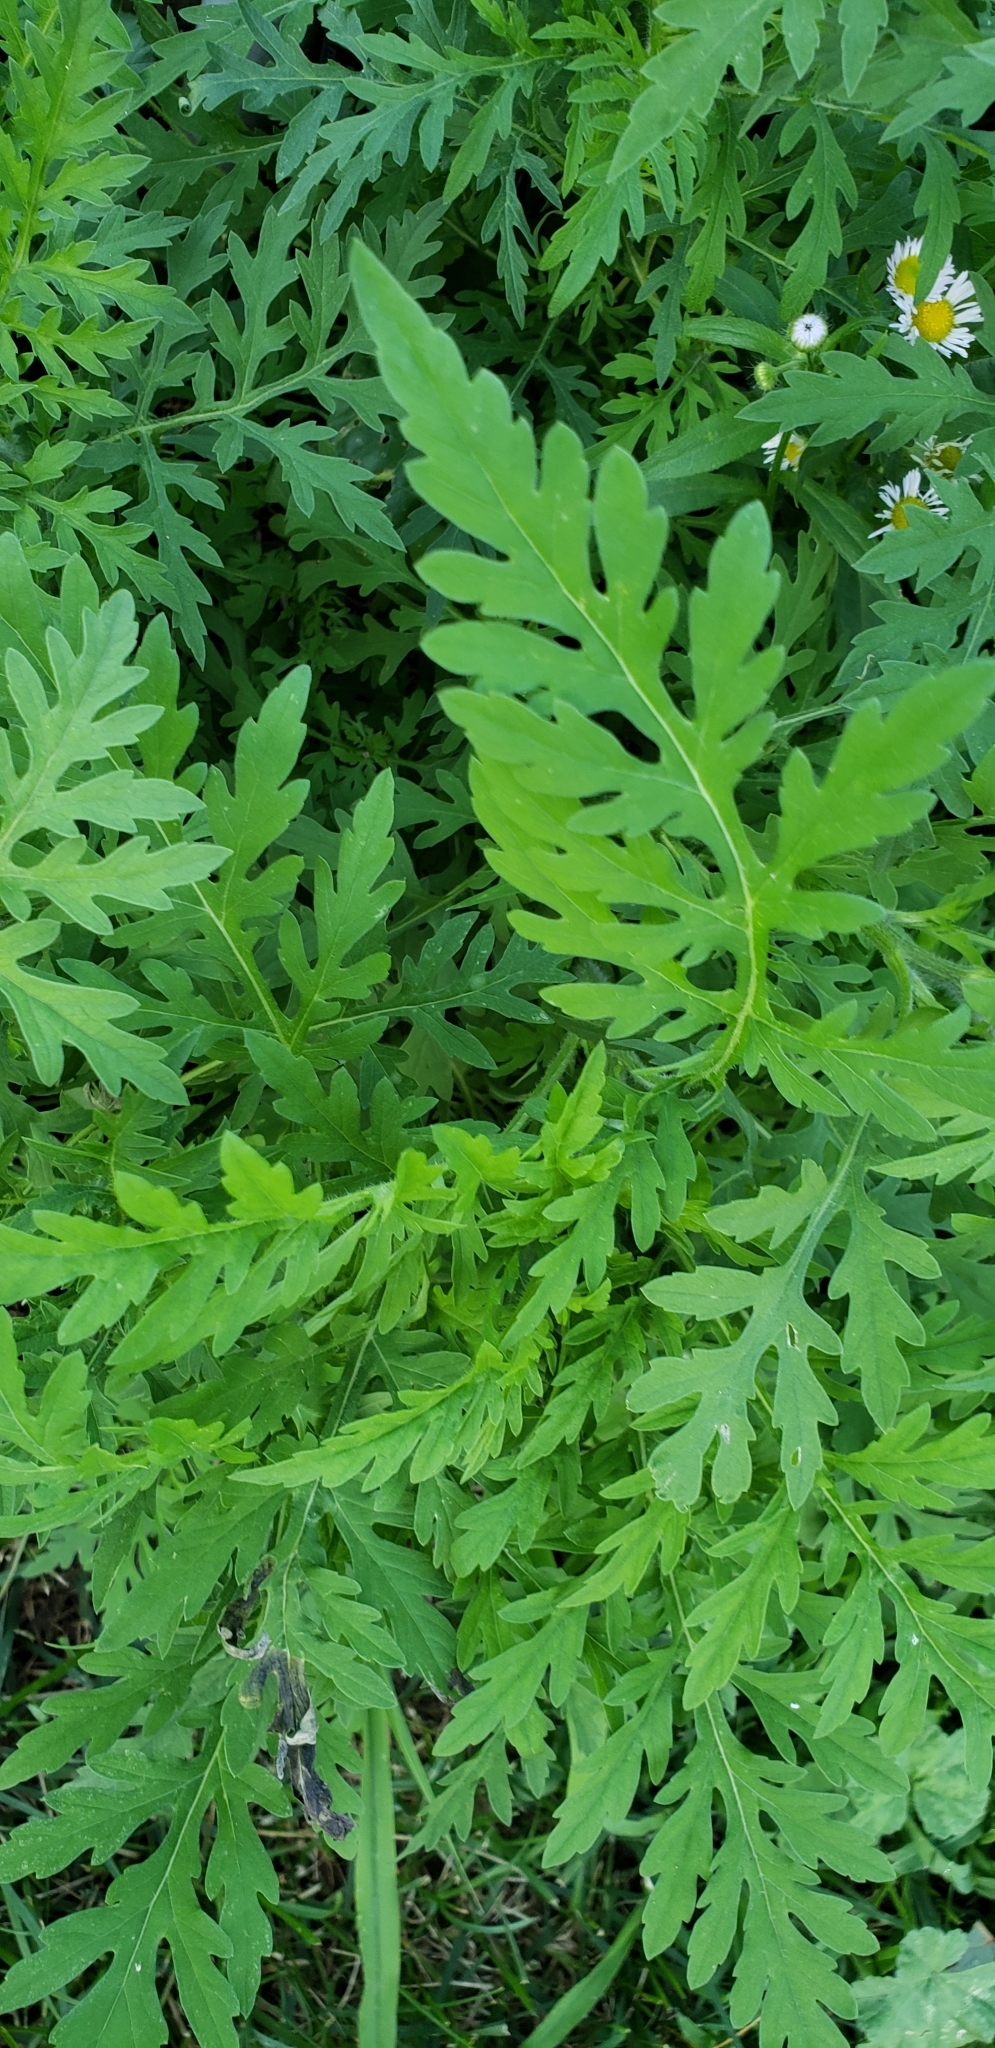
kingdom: Plantae
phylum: Tracheophyta
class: Magnoliopsida
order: Asterales
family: Asteraceae
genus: Ambrosia
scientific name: Ambrosia artemisiifolia
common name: Annual ragweed
